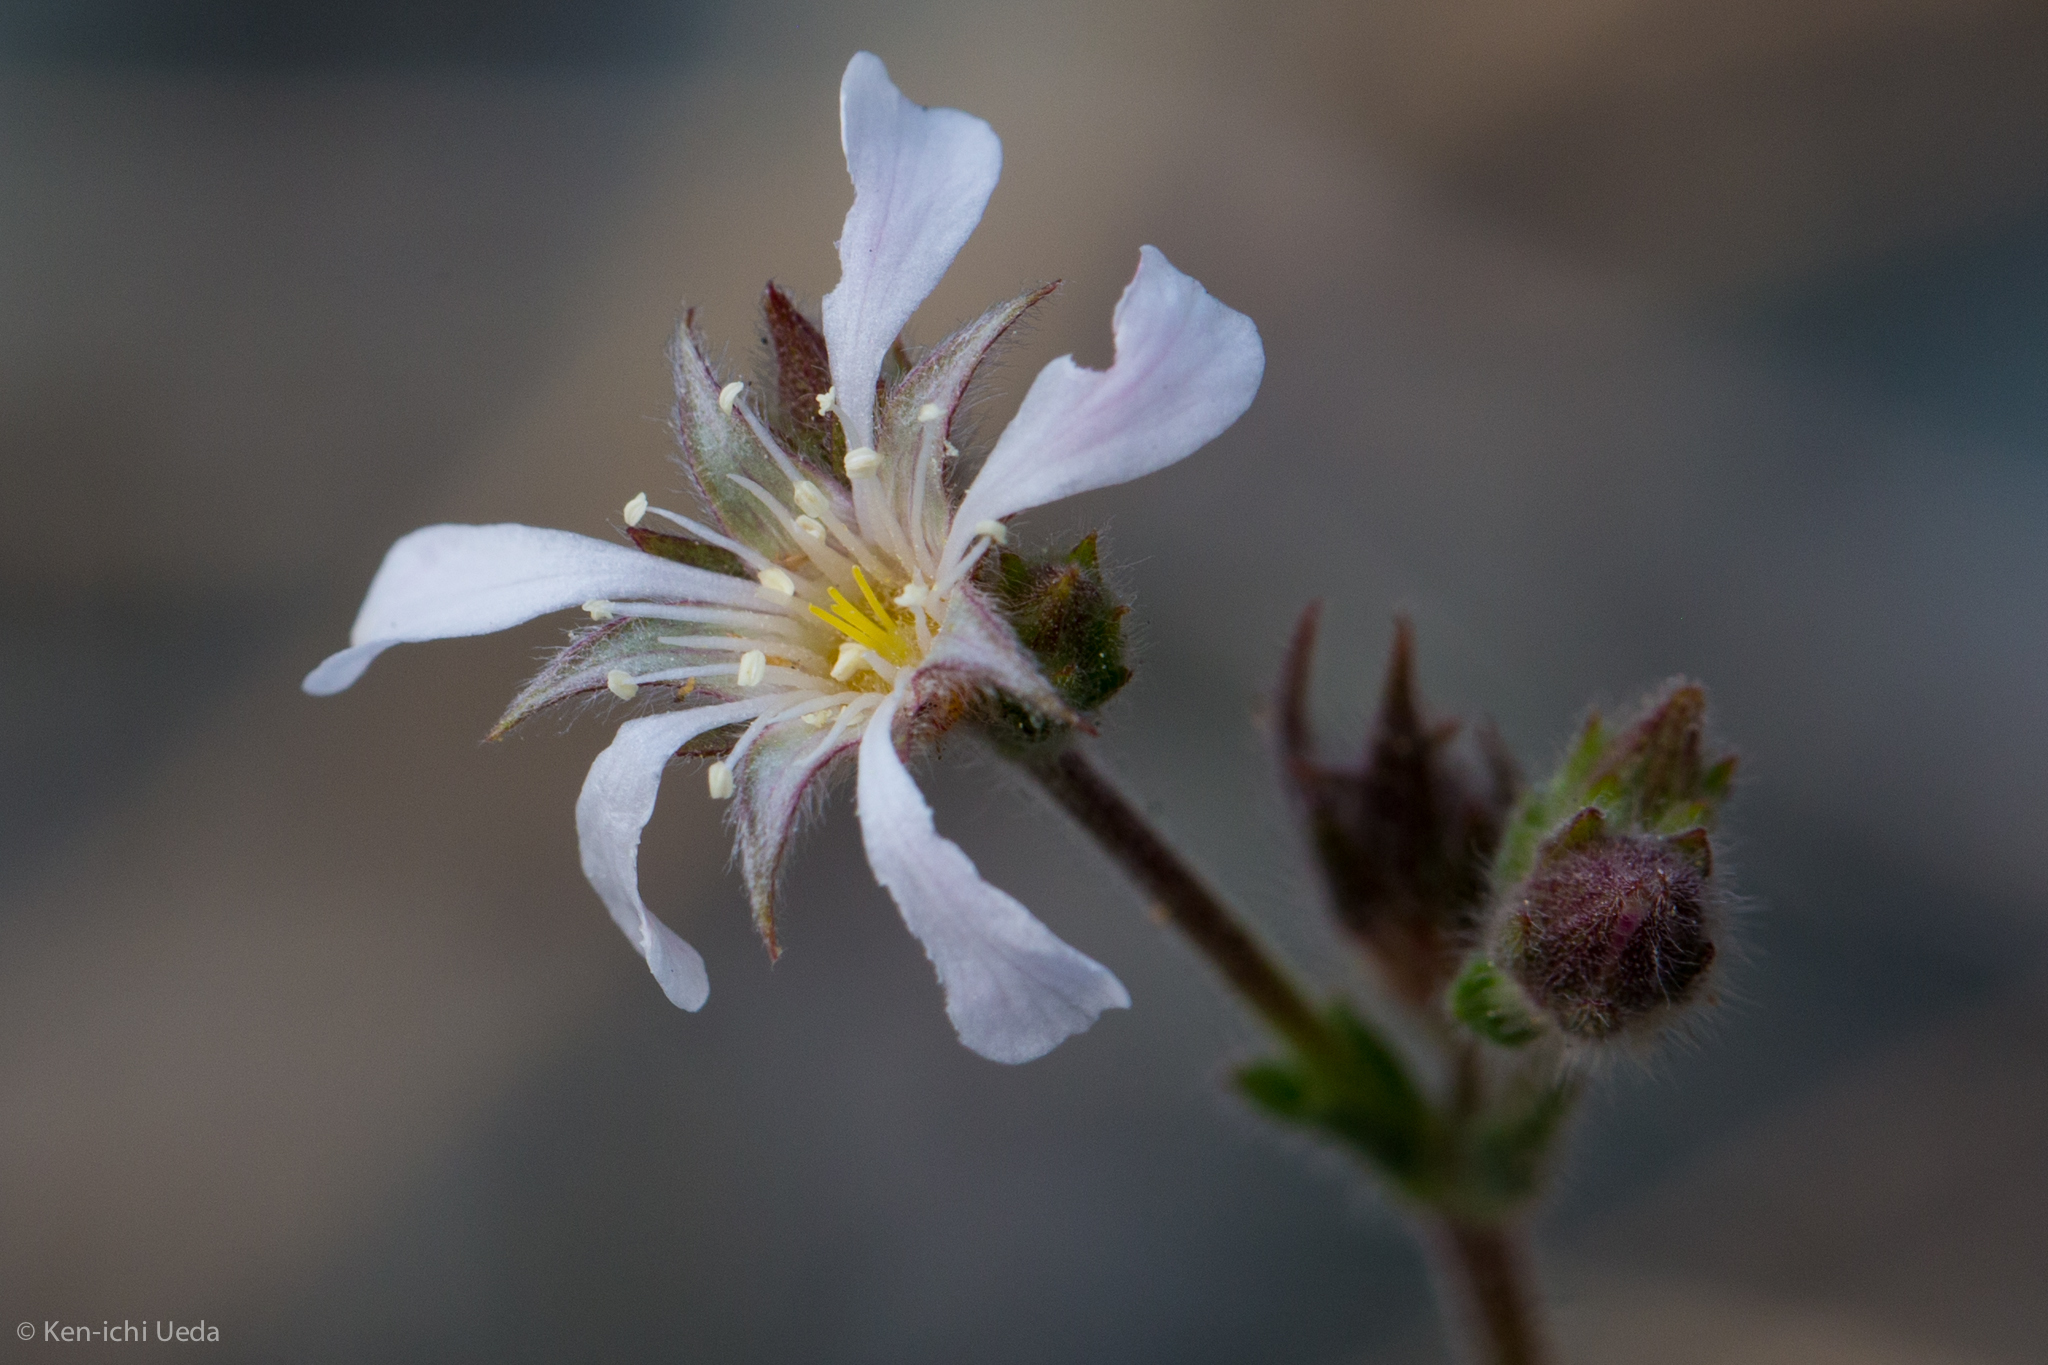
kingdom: Plantae
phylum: Tracheophyta
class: Magnoliopsida
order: Rosales
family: Rosaceae
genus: Potentilla
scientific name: Potentilla pickeringii
